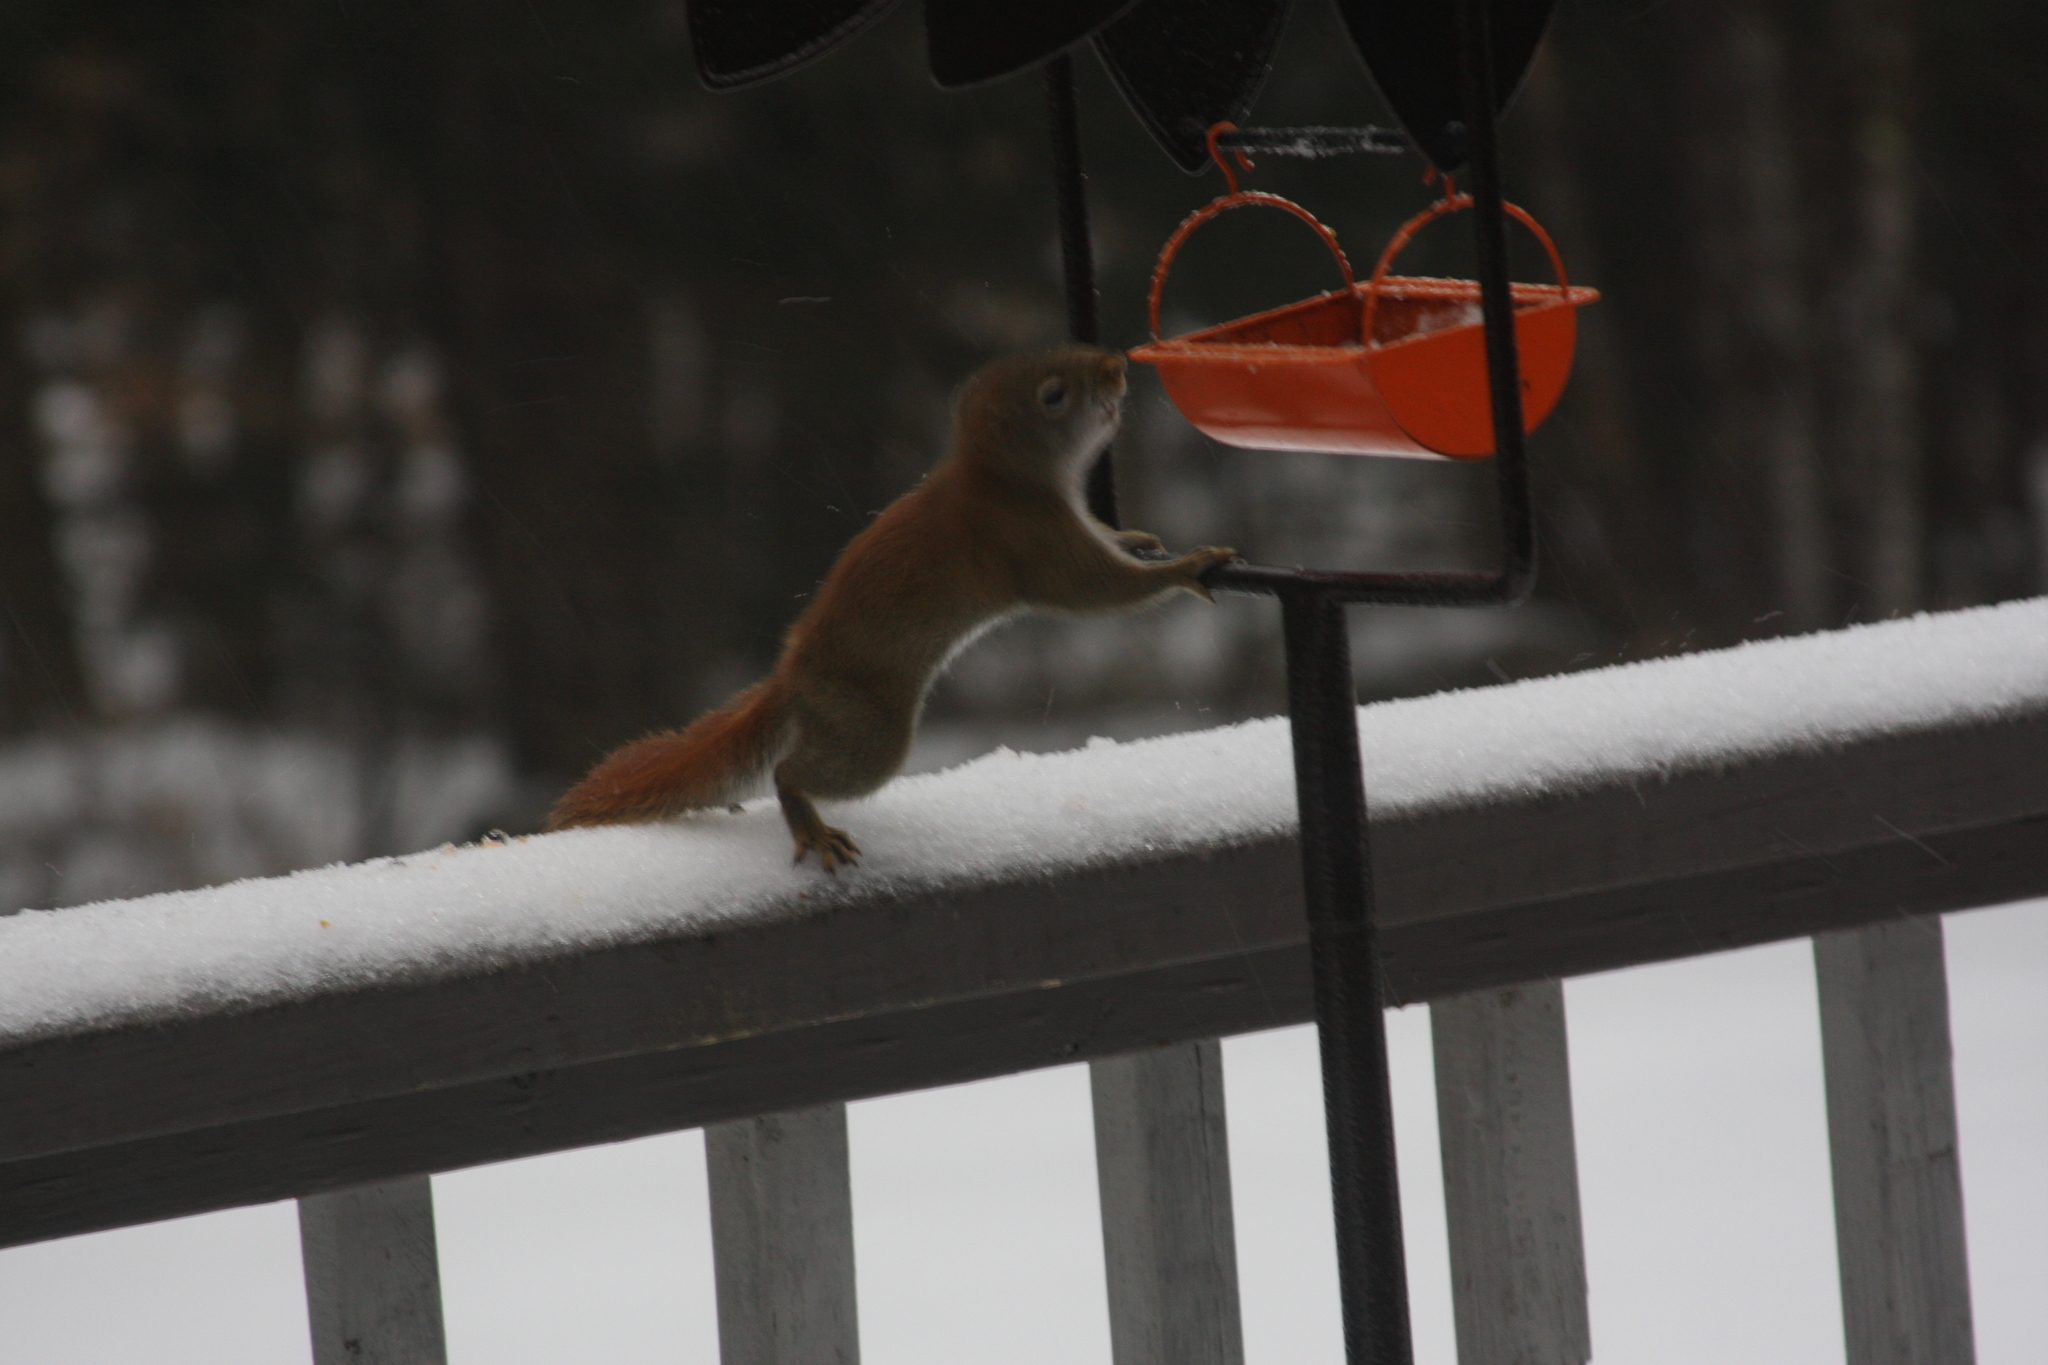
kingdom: Animalia
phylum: Chordata
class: Mammalia
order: Rodentia
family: Sciuridae
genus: Tamiasciurus
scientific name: Tamiasciurus hudsonicus
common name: Red squirrel
